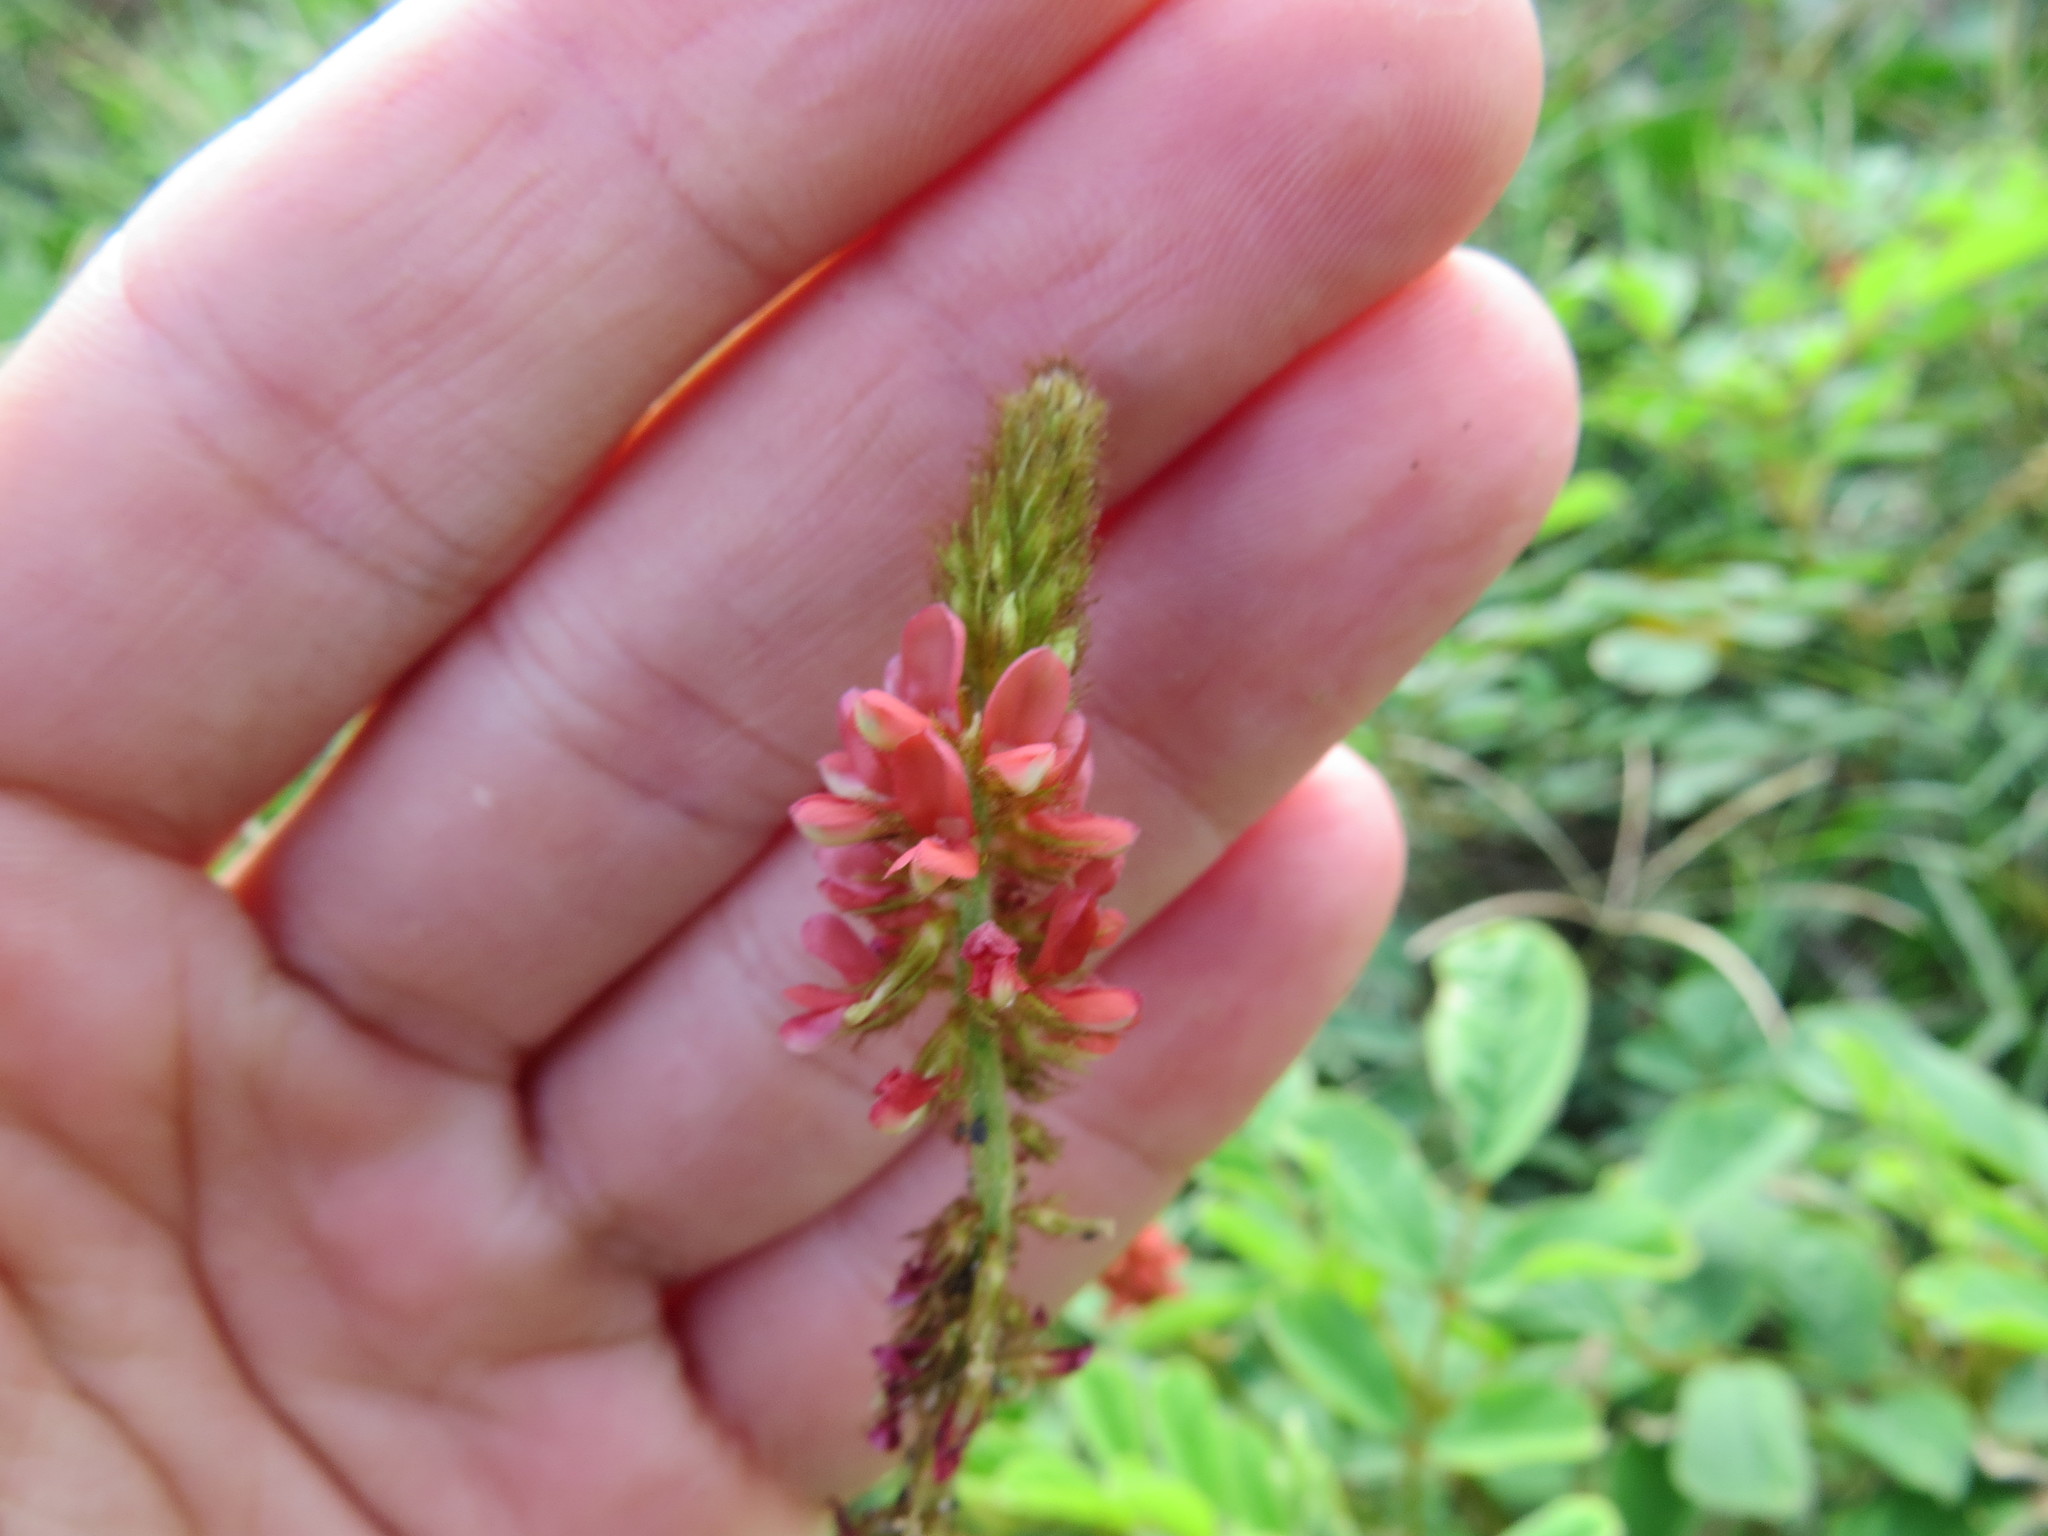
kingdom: Plantae
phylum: Tracheophyta
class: Magnoliopsida
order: Fabales
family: Fabaceae
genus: Indigofera
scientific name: Indigofera hirsuta
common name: Hairy indigo
